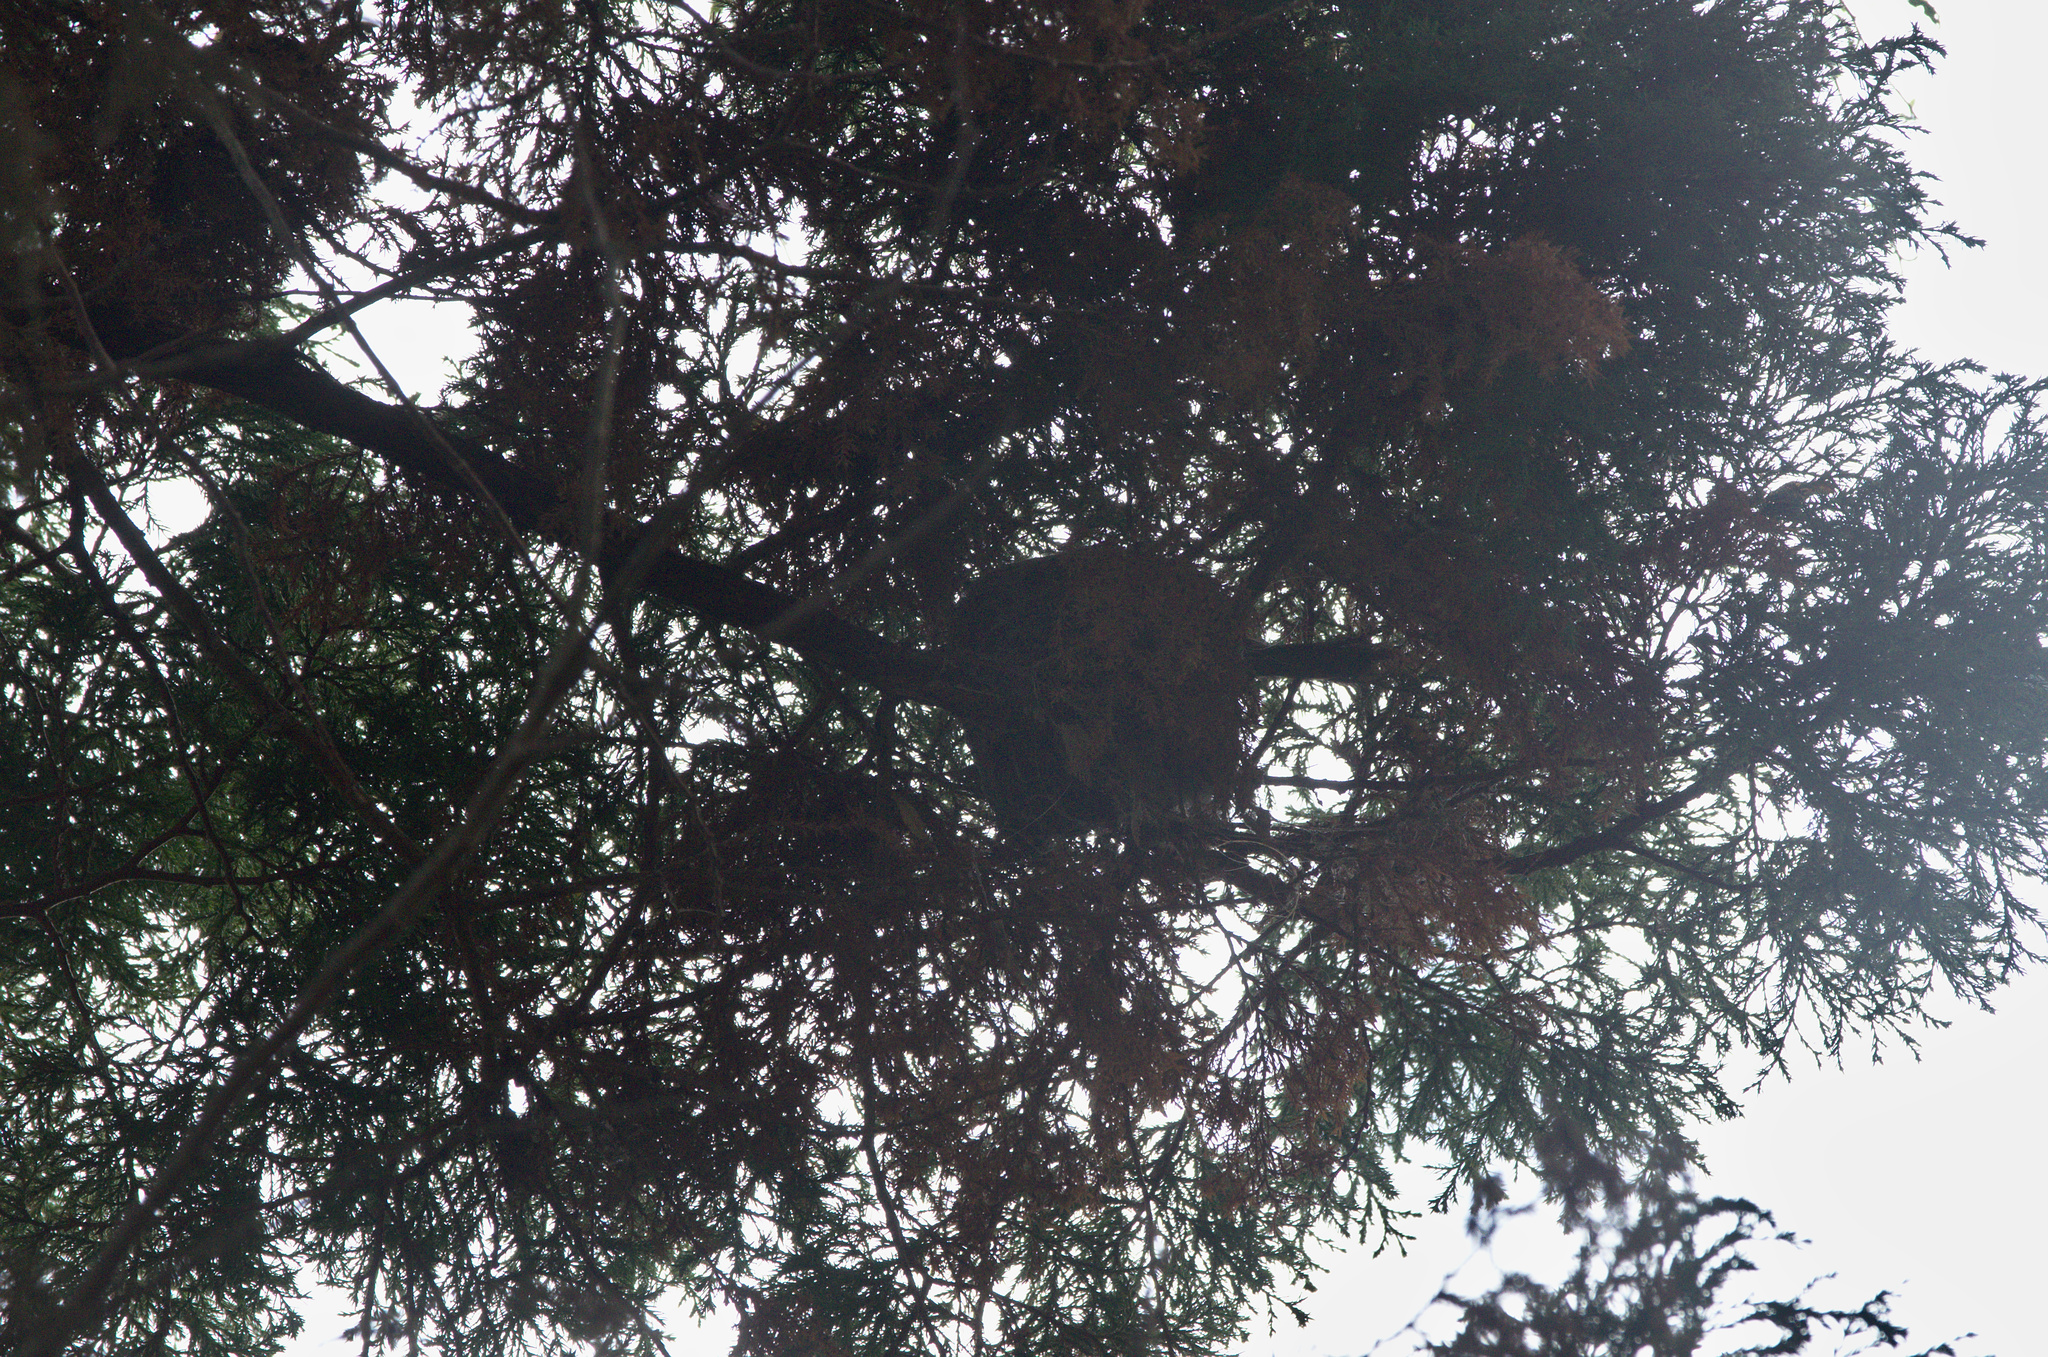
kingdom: Animalia
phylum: Chordata
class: Aves
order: Passeriformes
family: Rhipiduridae
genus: Rhipidura
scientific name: Rhipidura fuliginosa
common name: New zealand fantail
